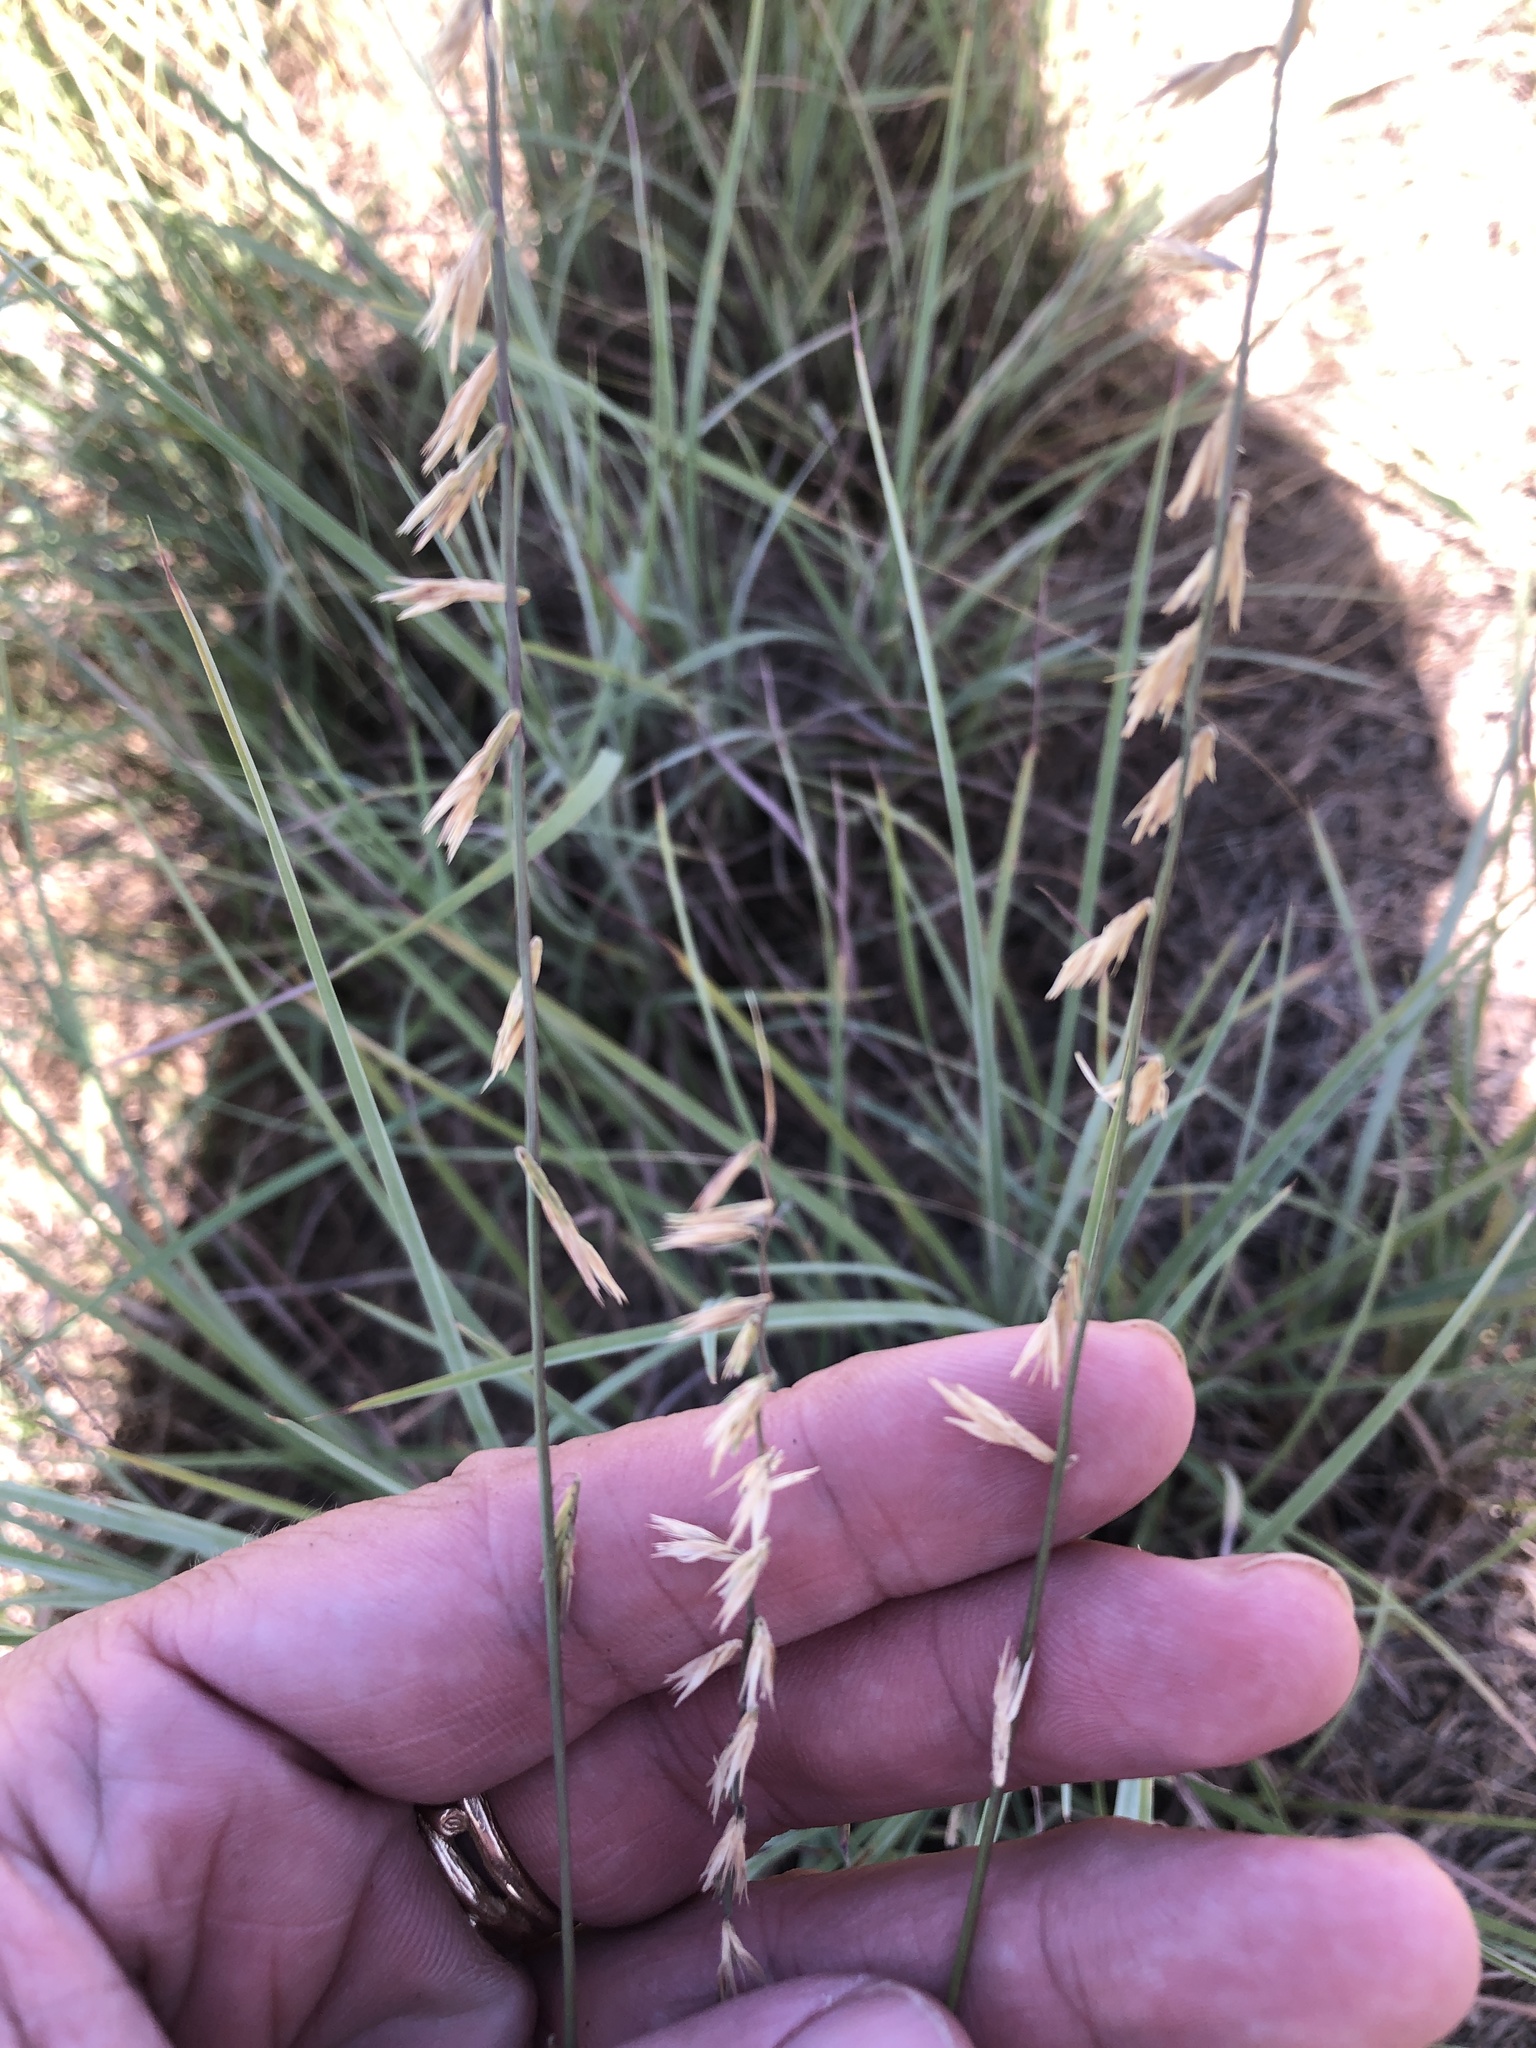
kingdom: Plantae
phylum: Tracheophyta
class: Liliopsida
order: Poales
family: Poaceae
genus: Bouteloua
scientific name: Bouteloua curtipendula
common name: Side-oats grama
